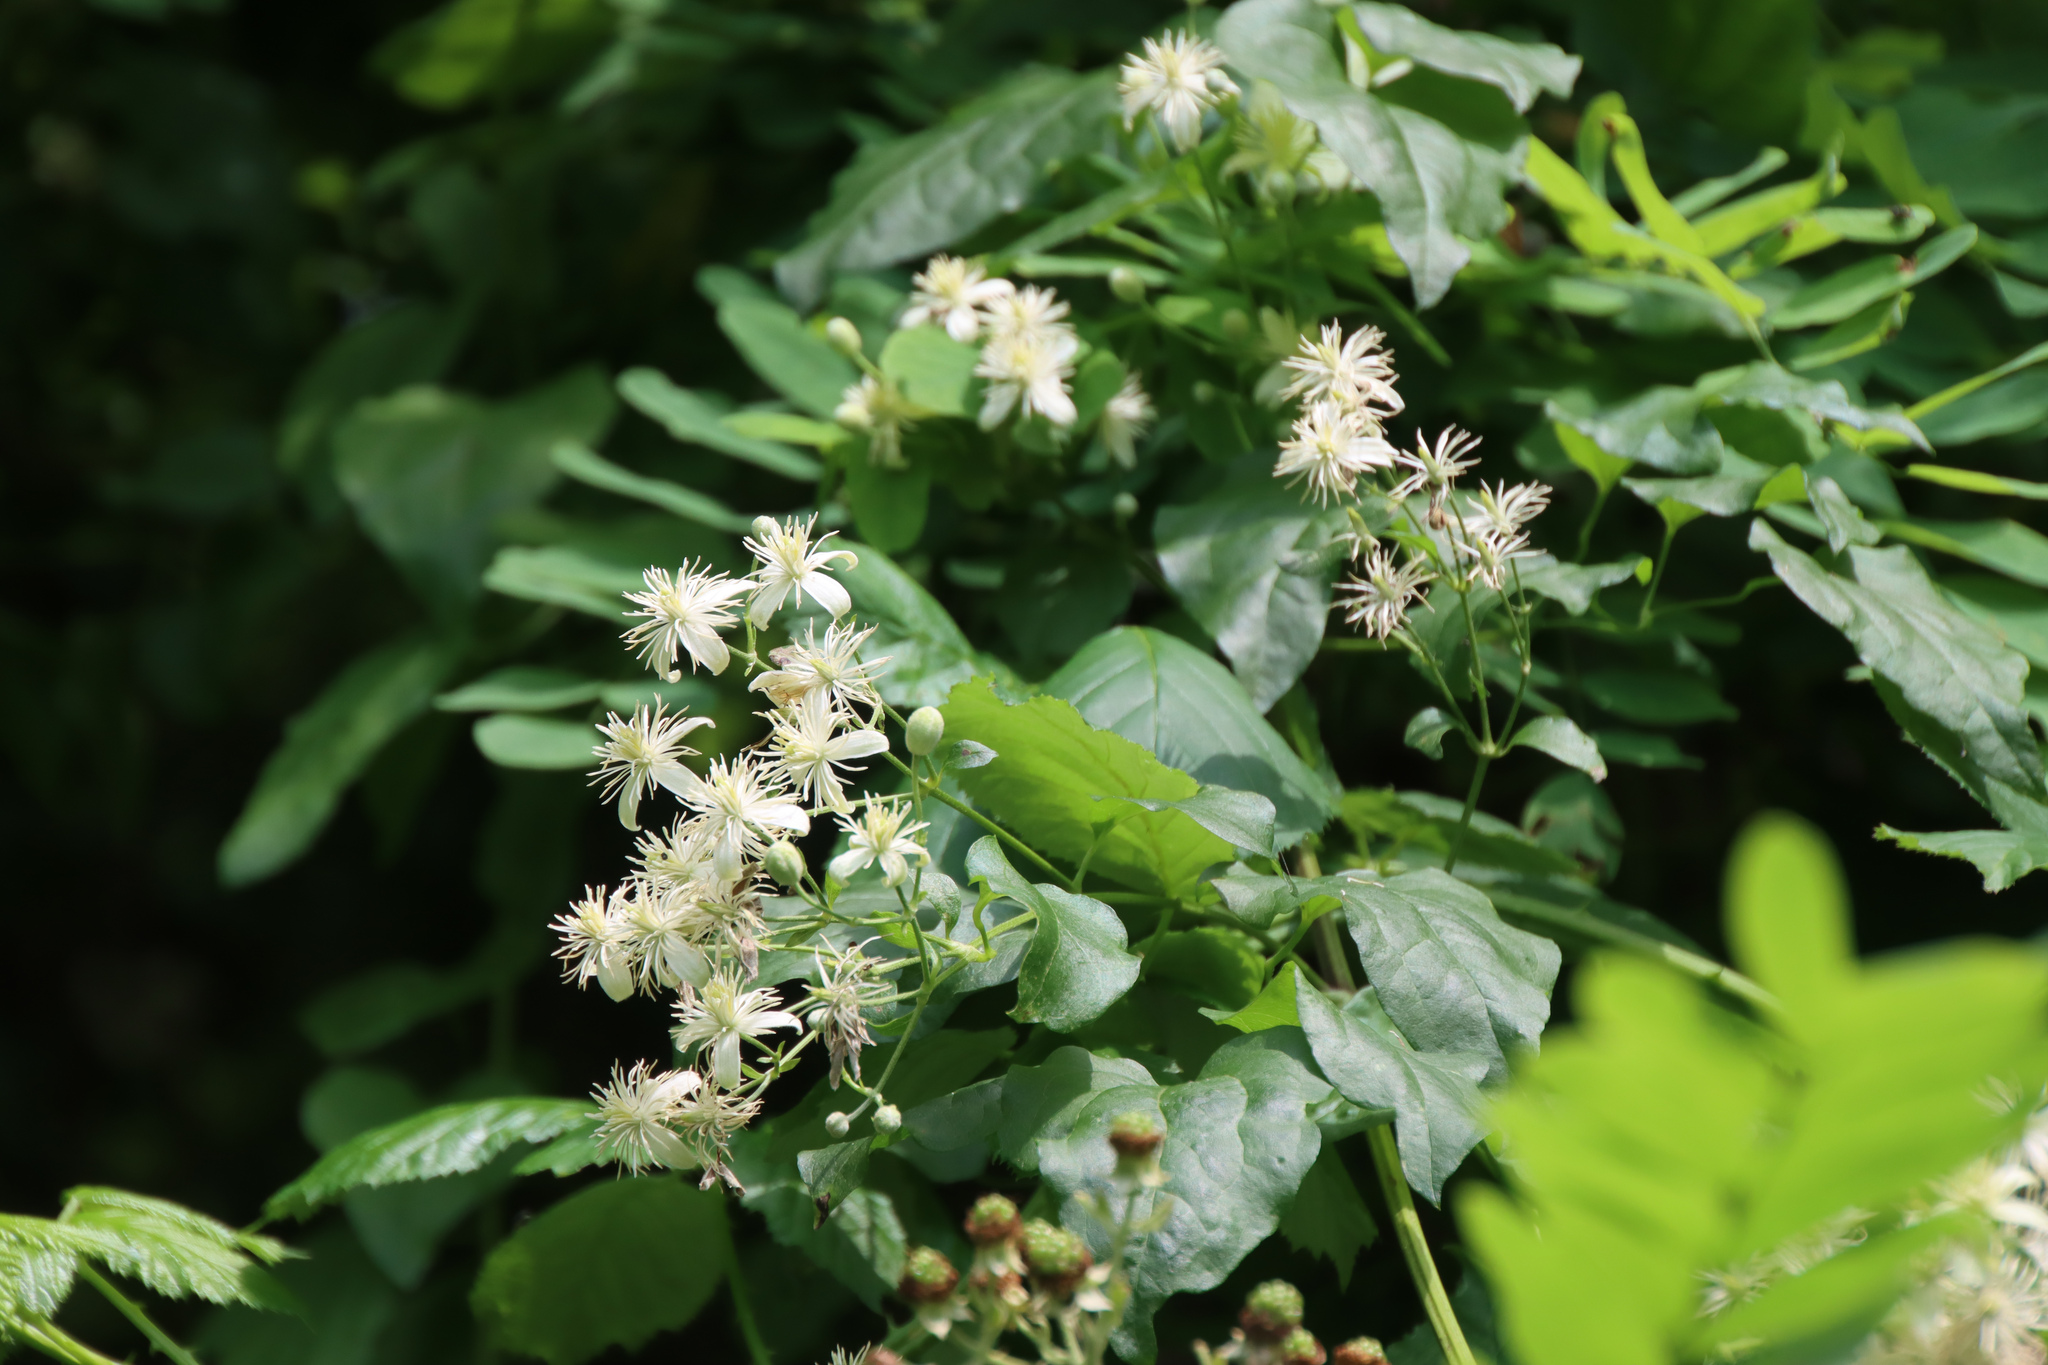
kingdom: Plantae
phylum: Tracheophyta
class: Magnoliopsida
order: Ranunculales
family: Ranunculaceae
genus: Clematis
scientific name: Clematis vitalba
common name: Evergreen clematis
